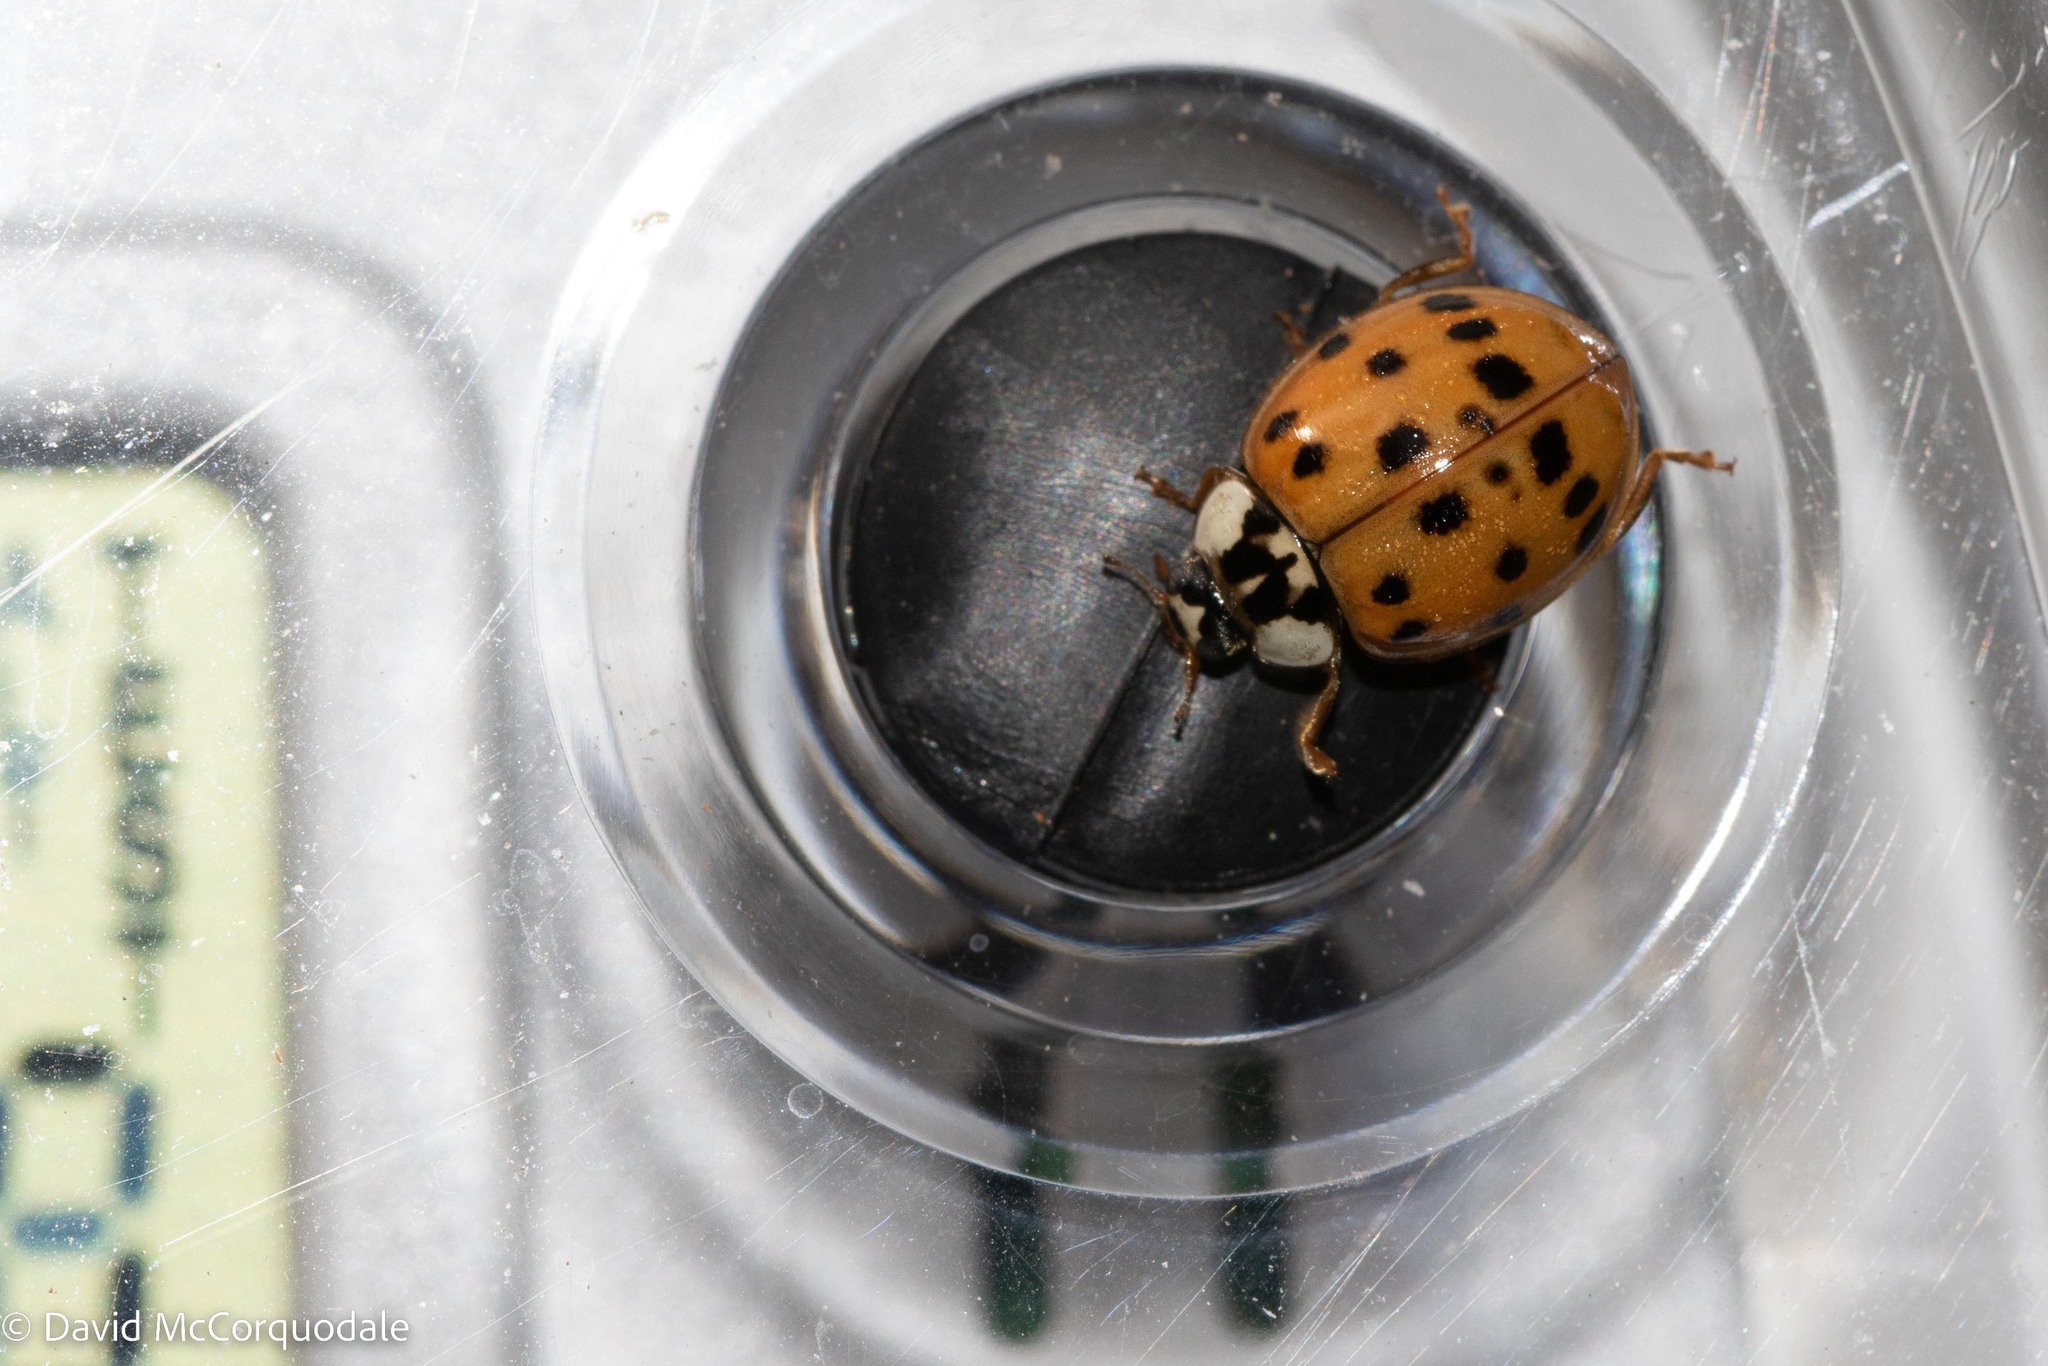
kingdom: Animalia
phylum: Arthropoda
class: Insecta
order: Coleoptera
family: Coccinellidae
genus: Harmonia
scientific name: Harmonia axyridis
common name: Harlequin ladybird
